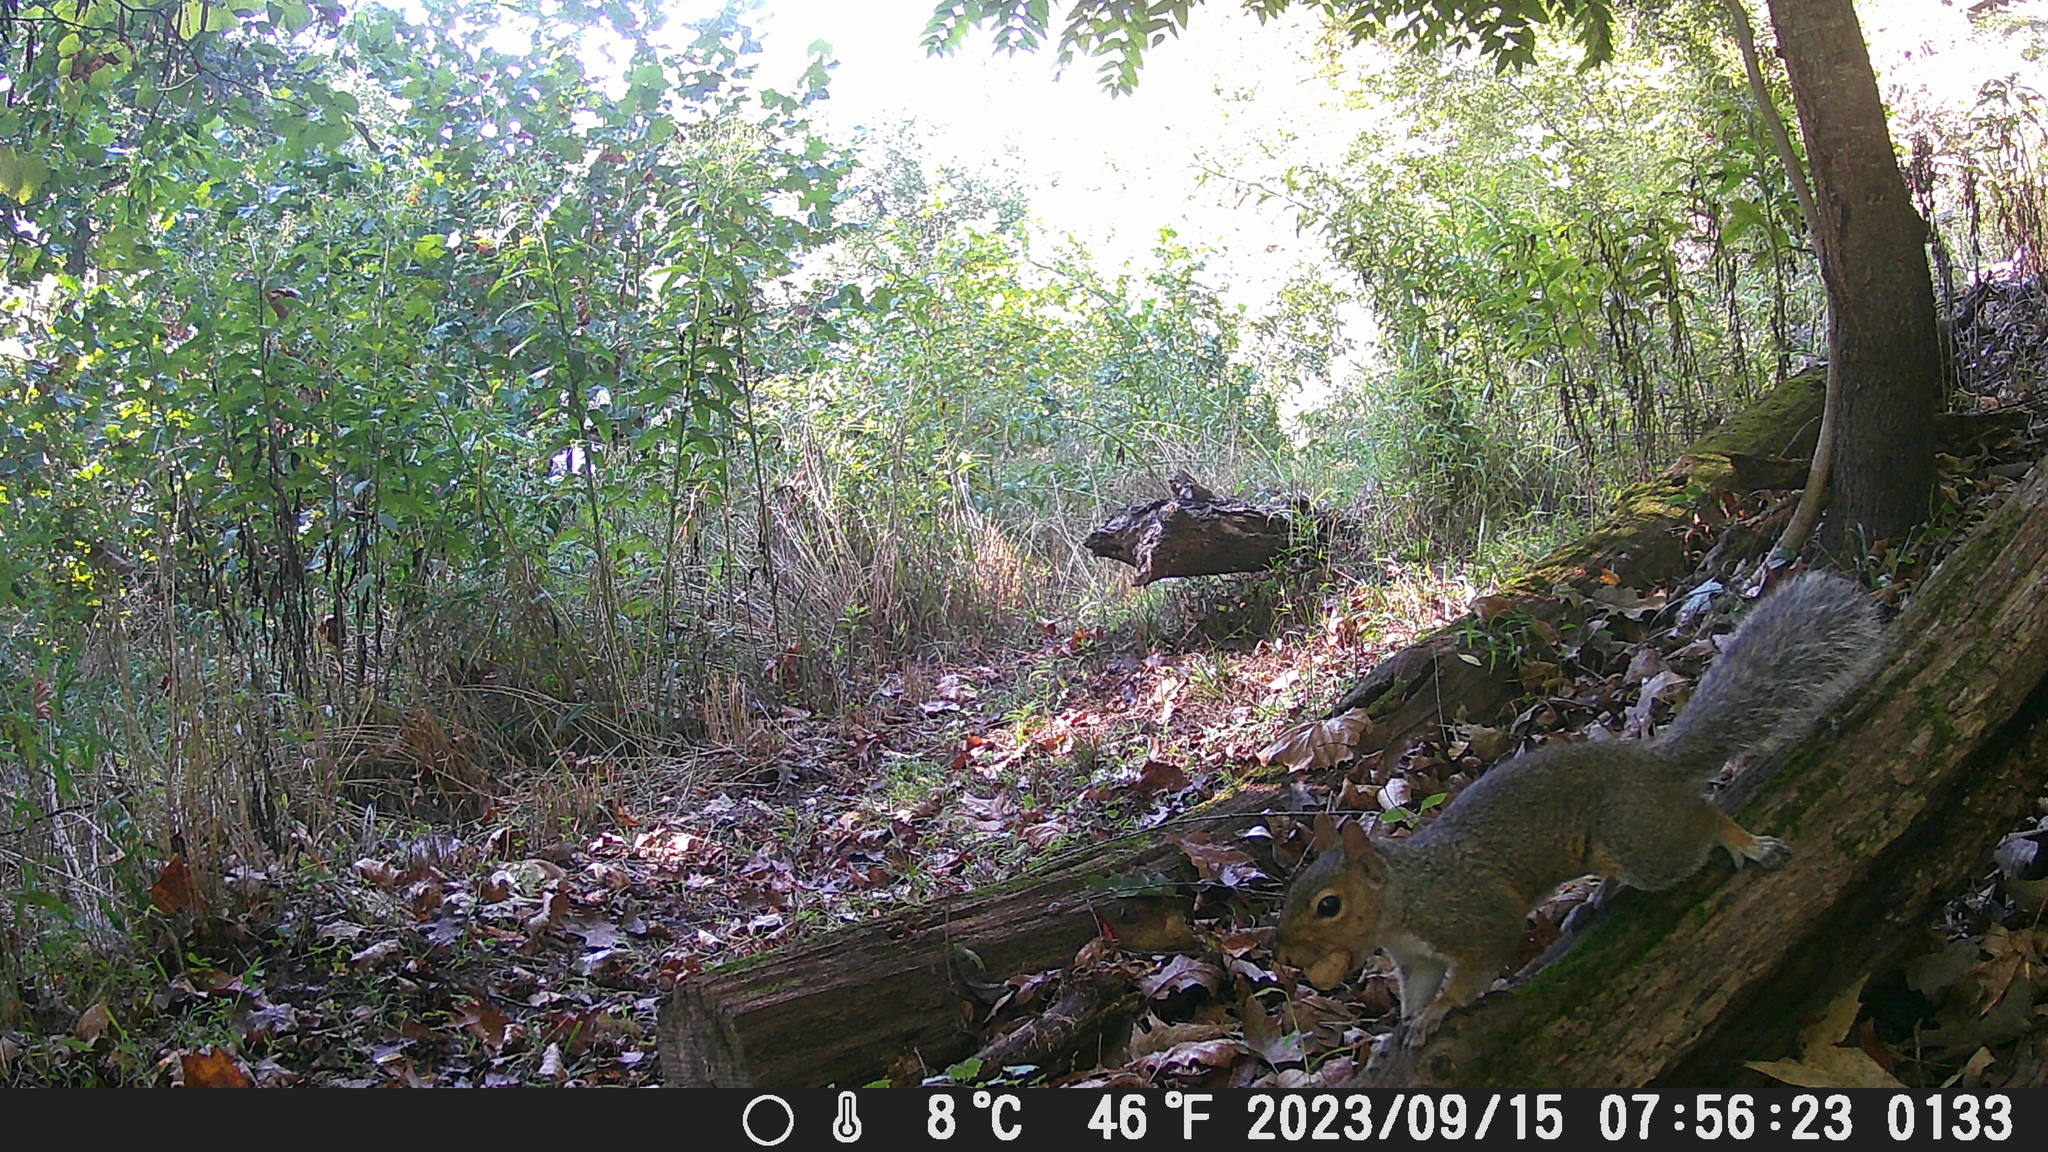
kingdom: Animalia
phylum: Chordata
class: Mammalia
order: Rodentia
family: Sciuridae
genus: Sciurus
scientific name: Sciurus carolinensis
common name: Eastern gray squirrel
